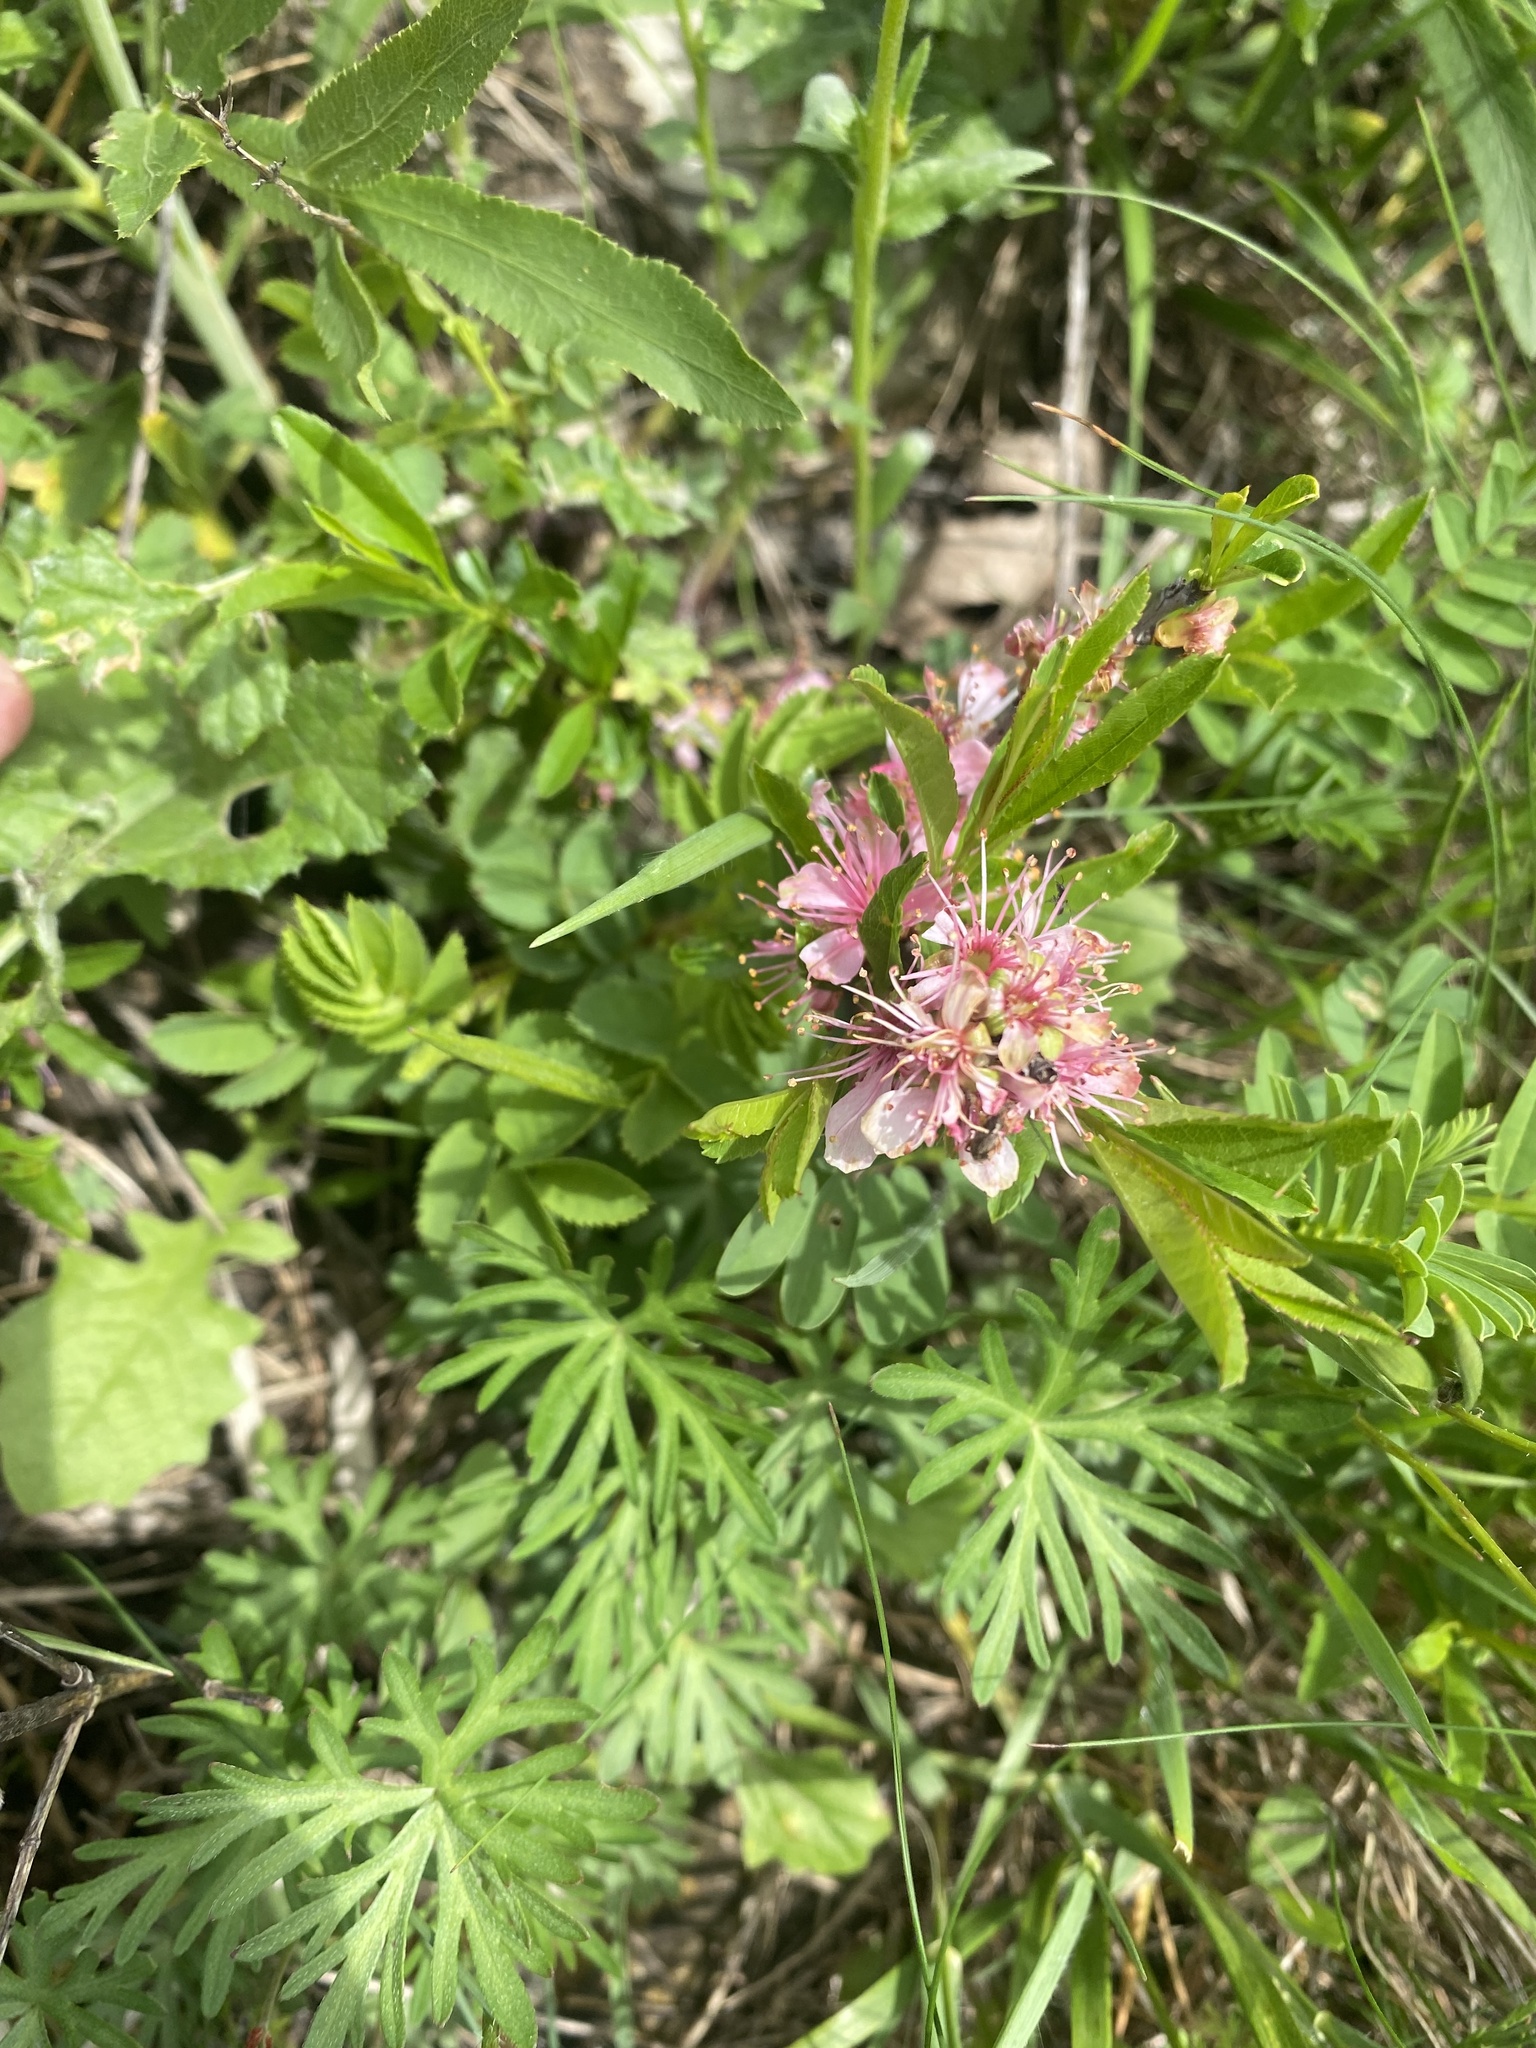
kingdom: Plantae
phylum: Tracheophyta
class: Magnoliopsida
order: Rosales
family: Rosaceae
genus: Prunus
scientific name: Prunus tenella
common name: Dwarf russian almond
